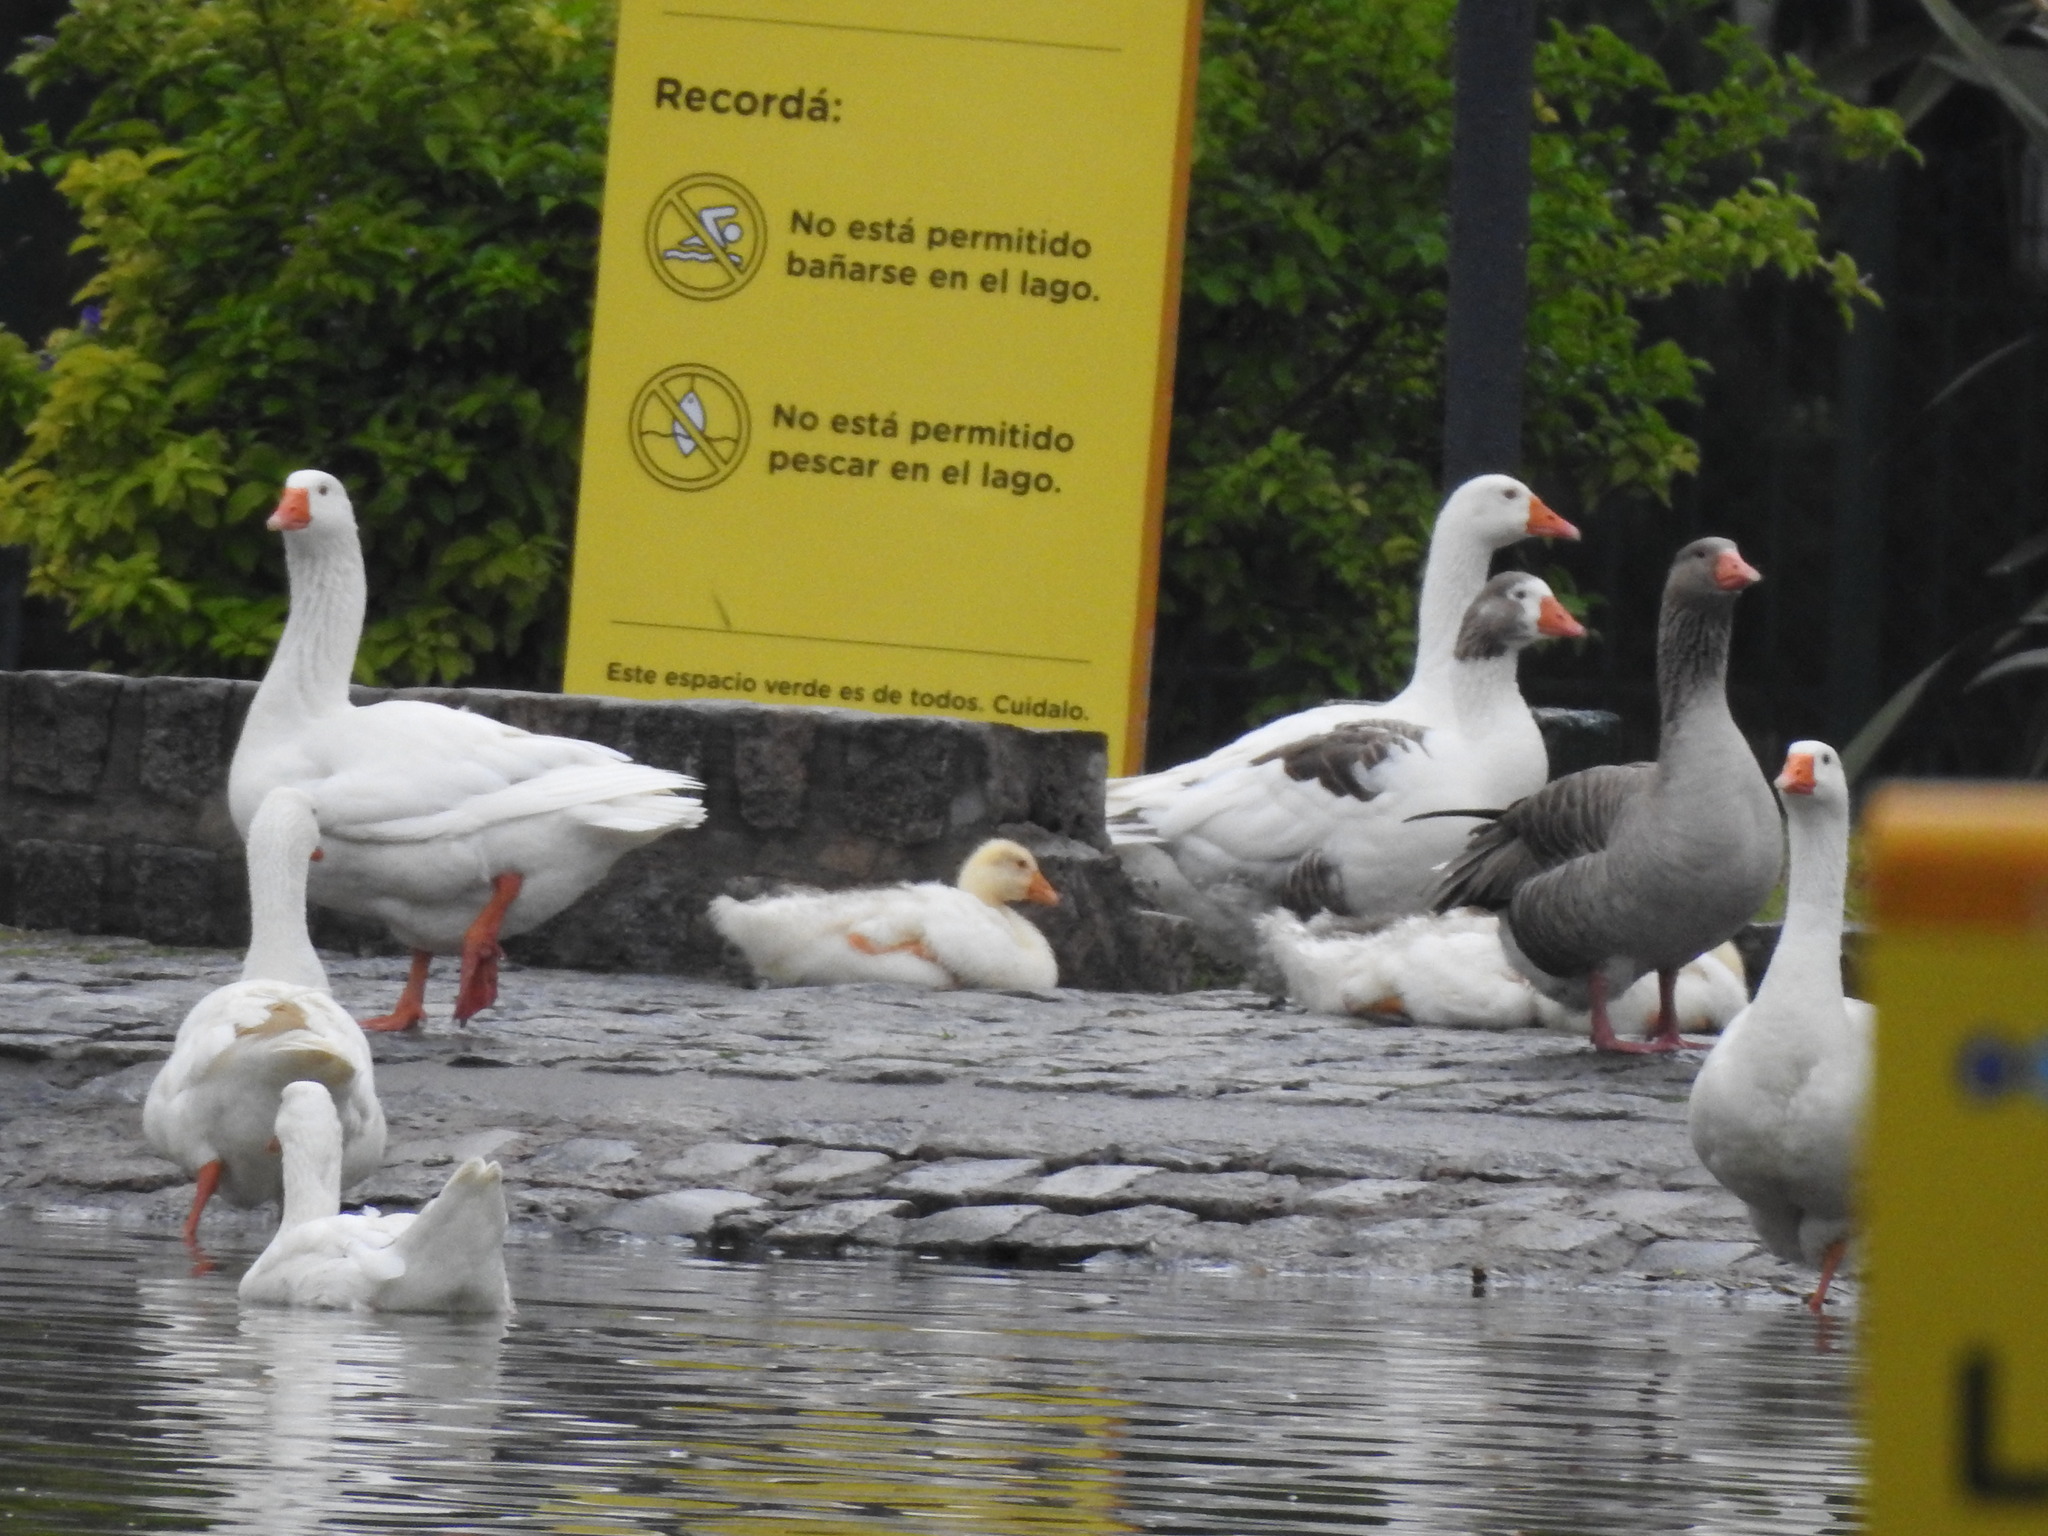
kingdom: Animalia
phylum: Chordata
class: Aves
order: Anseriformes
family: Anatidae
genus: Anser
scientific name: Anser anser
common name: Greylag goose
